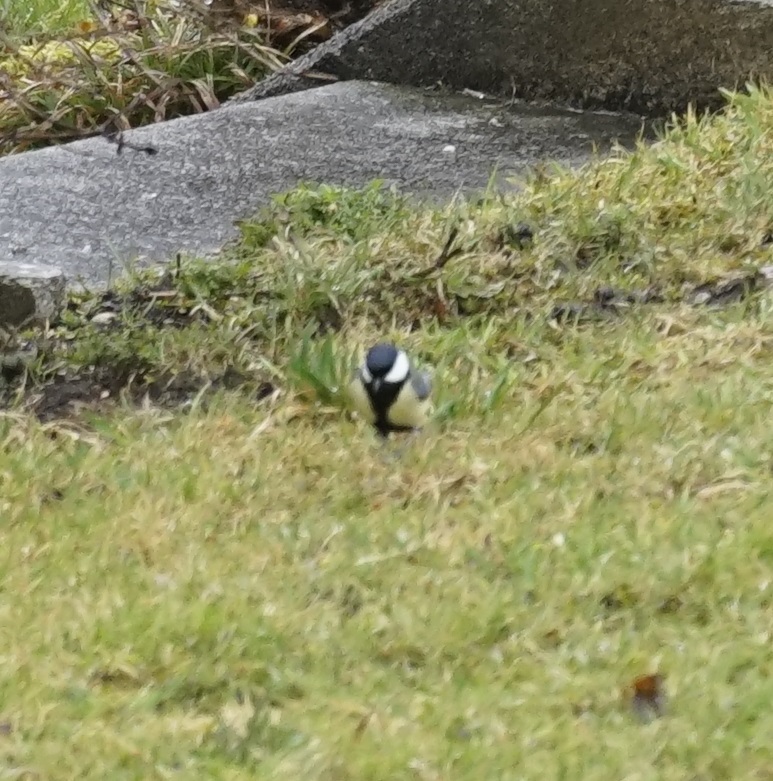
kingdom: Animalia
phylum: Chordata
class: Aves
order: Passeriformes
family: Paridae
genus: Parus
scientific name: Parus major
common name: Great tit
